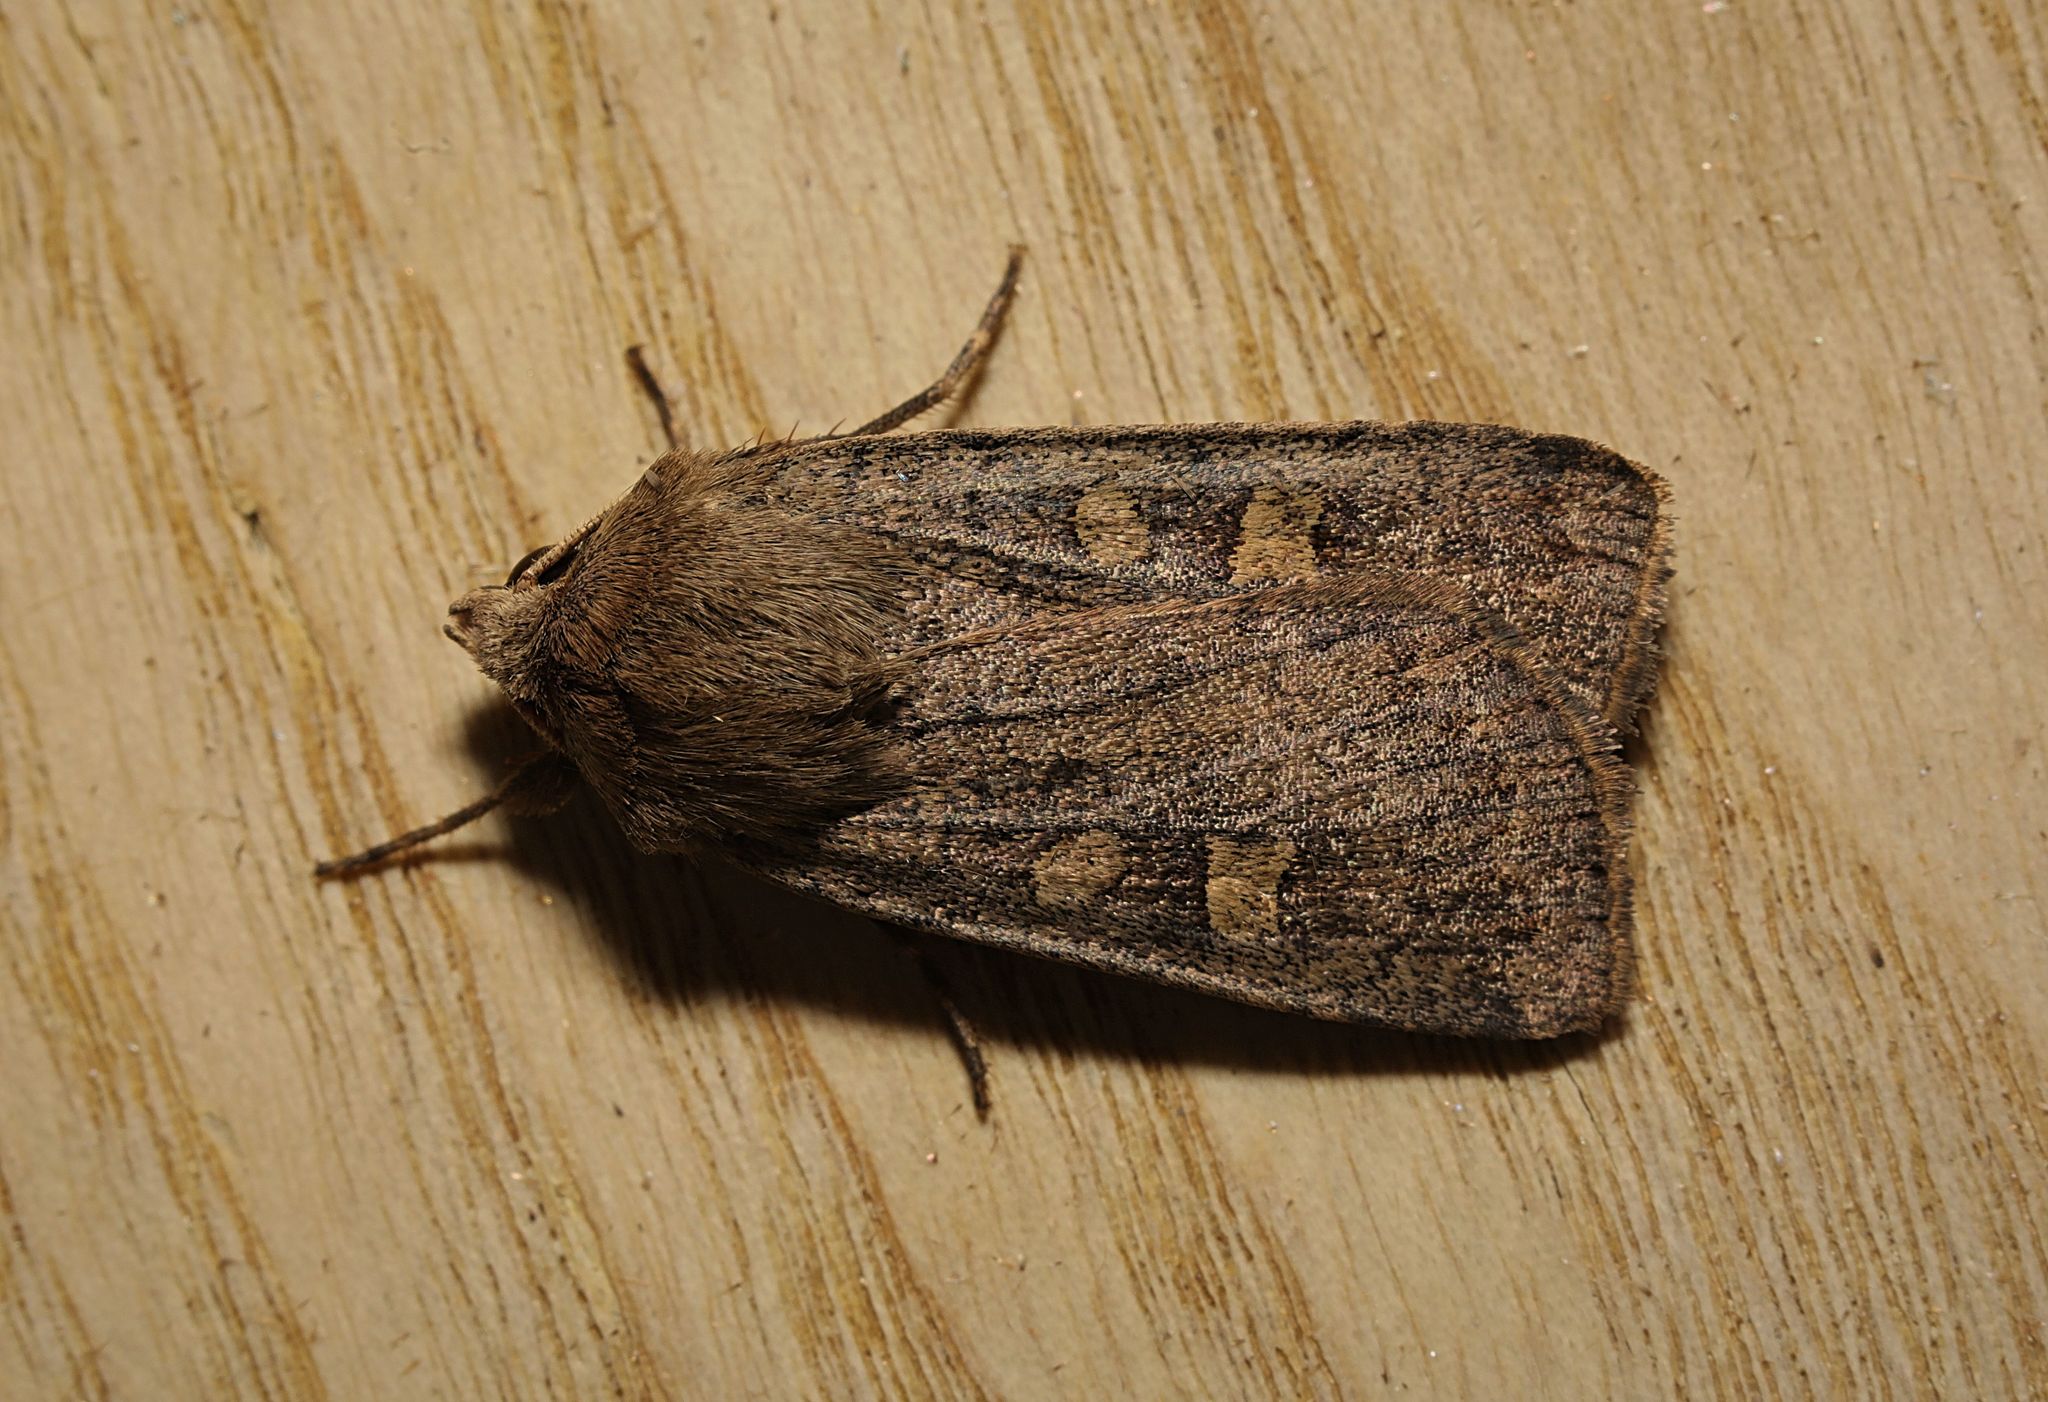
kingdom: Animalia
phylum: Arthropoda
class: Insecta
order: Lepidoptera
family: Noctuidae
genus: Xestia
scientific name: Xestia xanthographa
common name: Square-spot rustic
